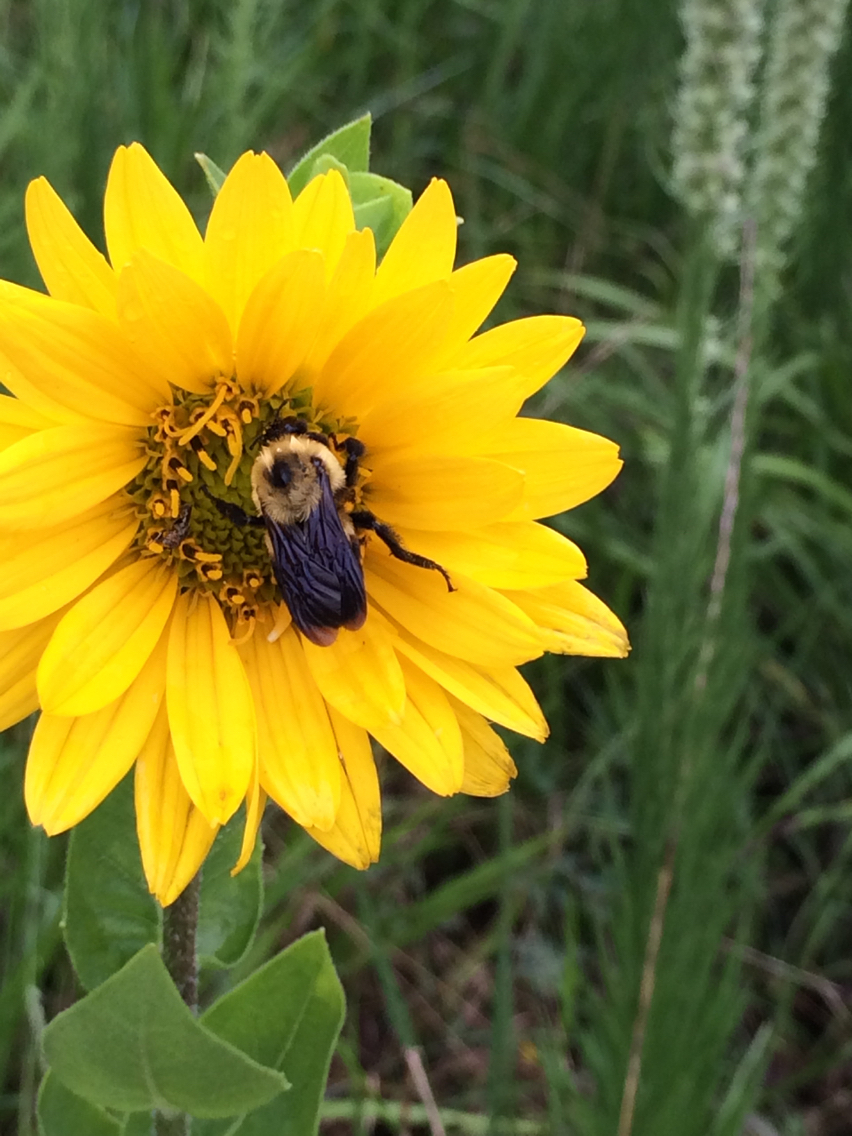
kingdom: Animalia
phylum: Arthropoda
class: Insecta
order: Hymenoptera
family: Apidae
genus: Bombus
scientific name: Bombus griseocollis
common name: Brown-belted bumble bee
